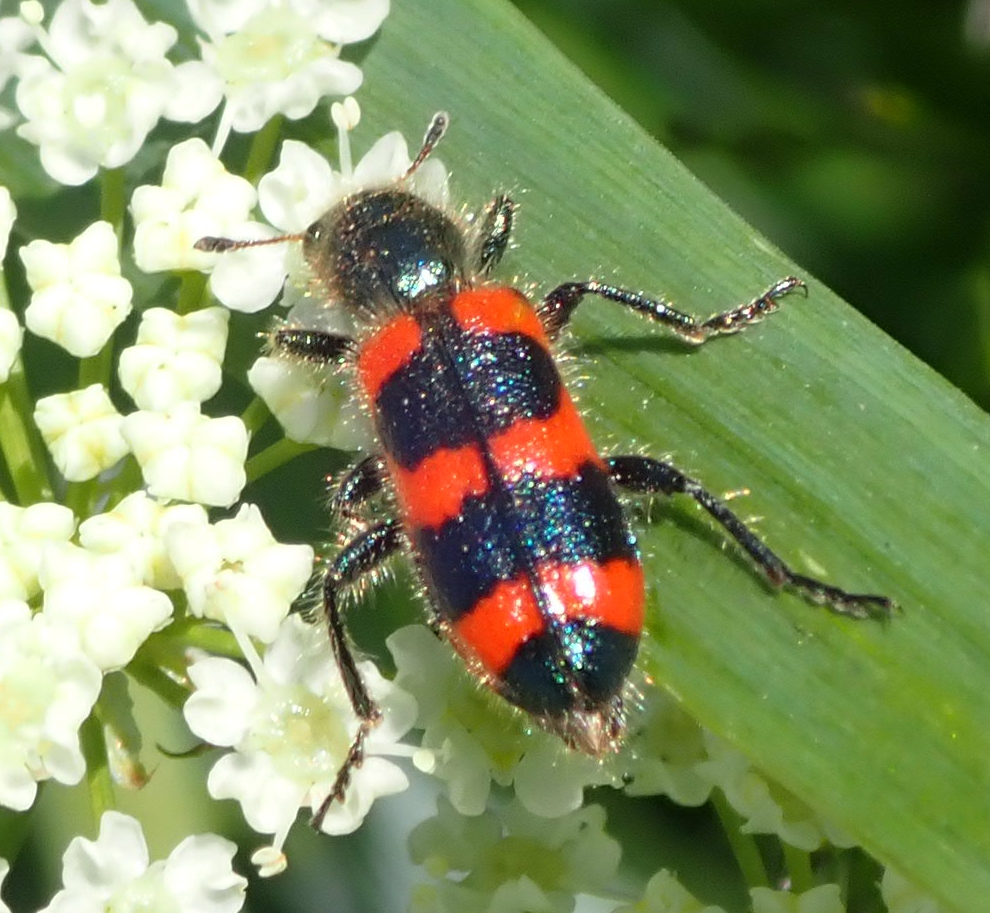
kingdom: Animalia
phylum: Arthropoda
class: Insecta
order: Coleoptera
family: Cleridae
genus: Trichodes
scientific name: Trichodes nutalli
